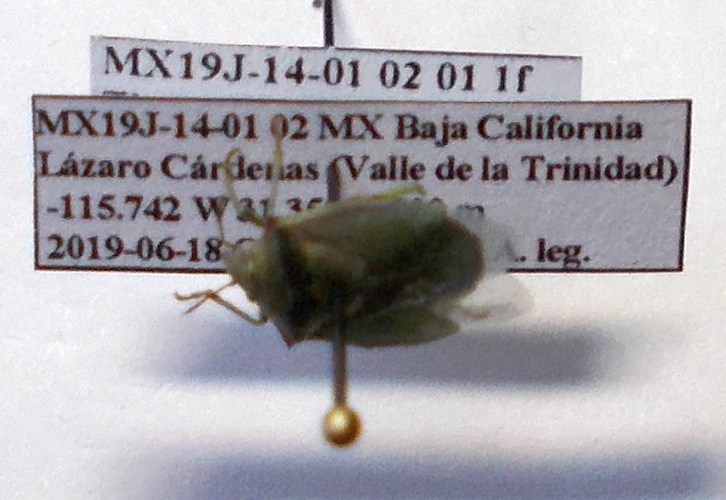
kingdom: Animalia
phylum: Arthropoda
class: Insecta
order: Hemiptera
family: Pentatomidae
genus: Thyanta
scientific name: Thyanta custator
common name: Stink bug
